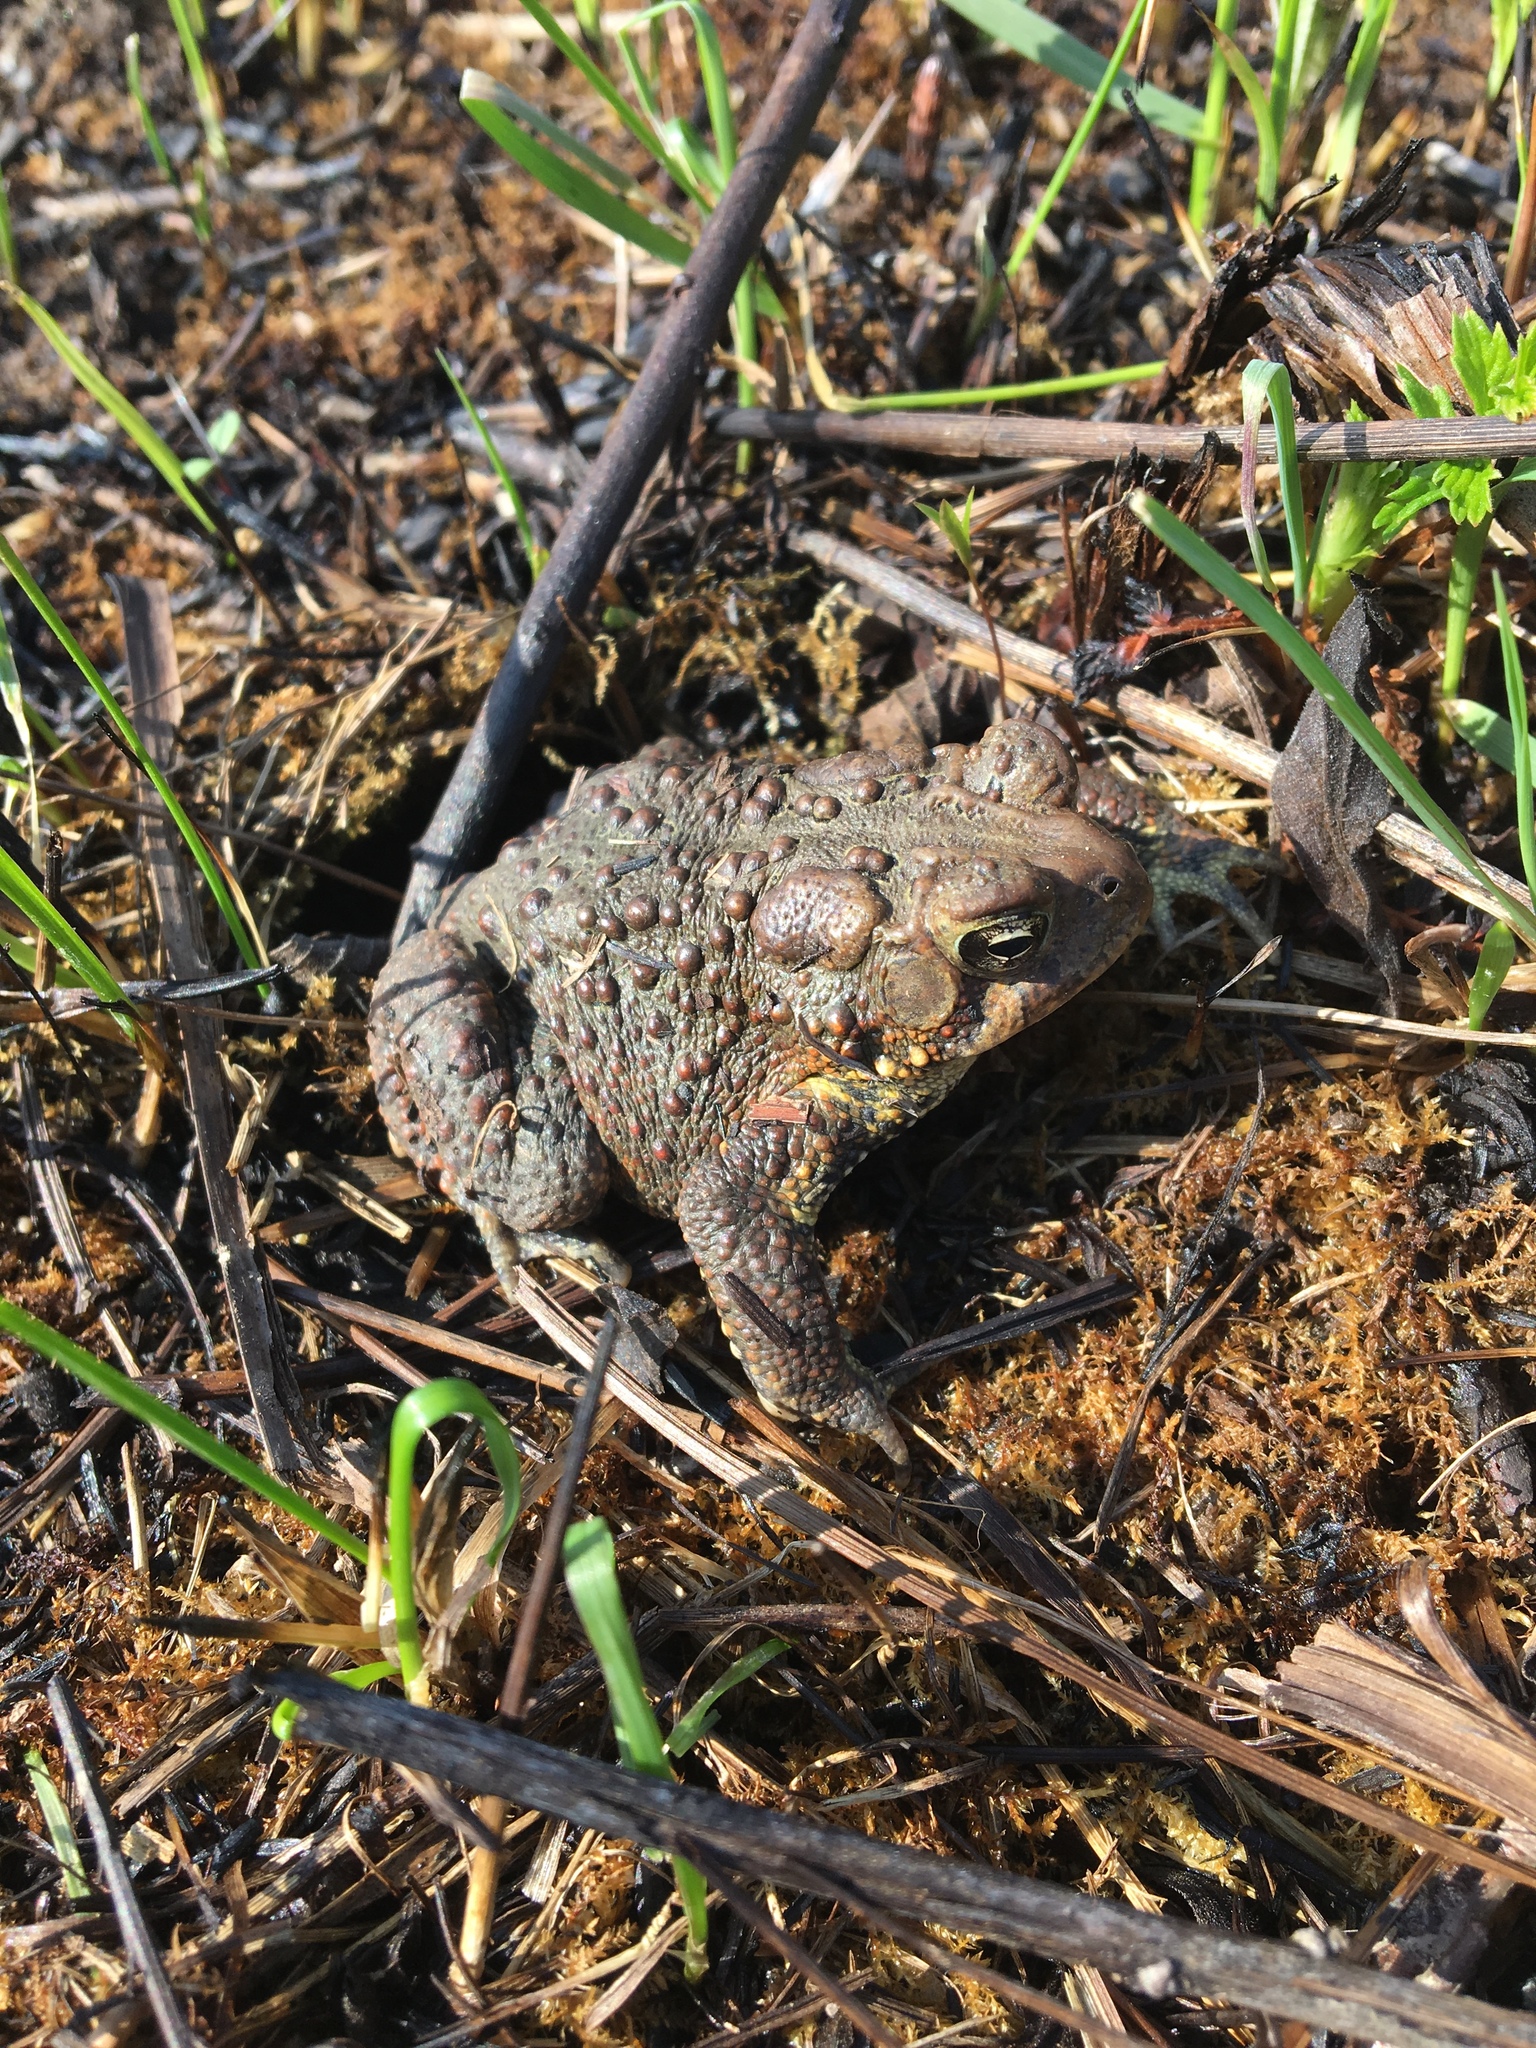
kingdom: Animalia
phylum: Chordata
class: Amphibia
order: Anura
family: Bufonidae
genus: Anaxyrus
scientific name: Anaxyrus americanus
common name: American toad
